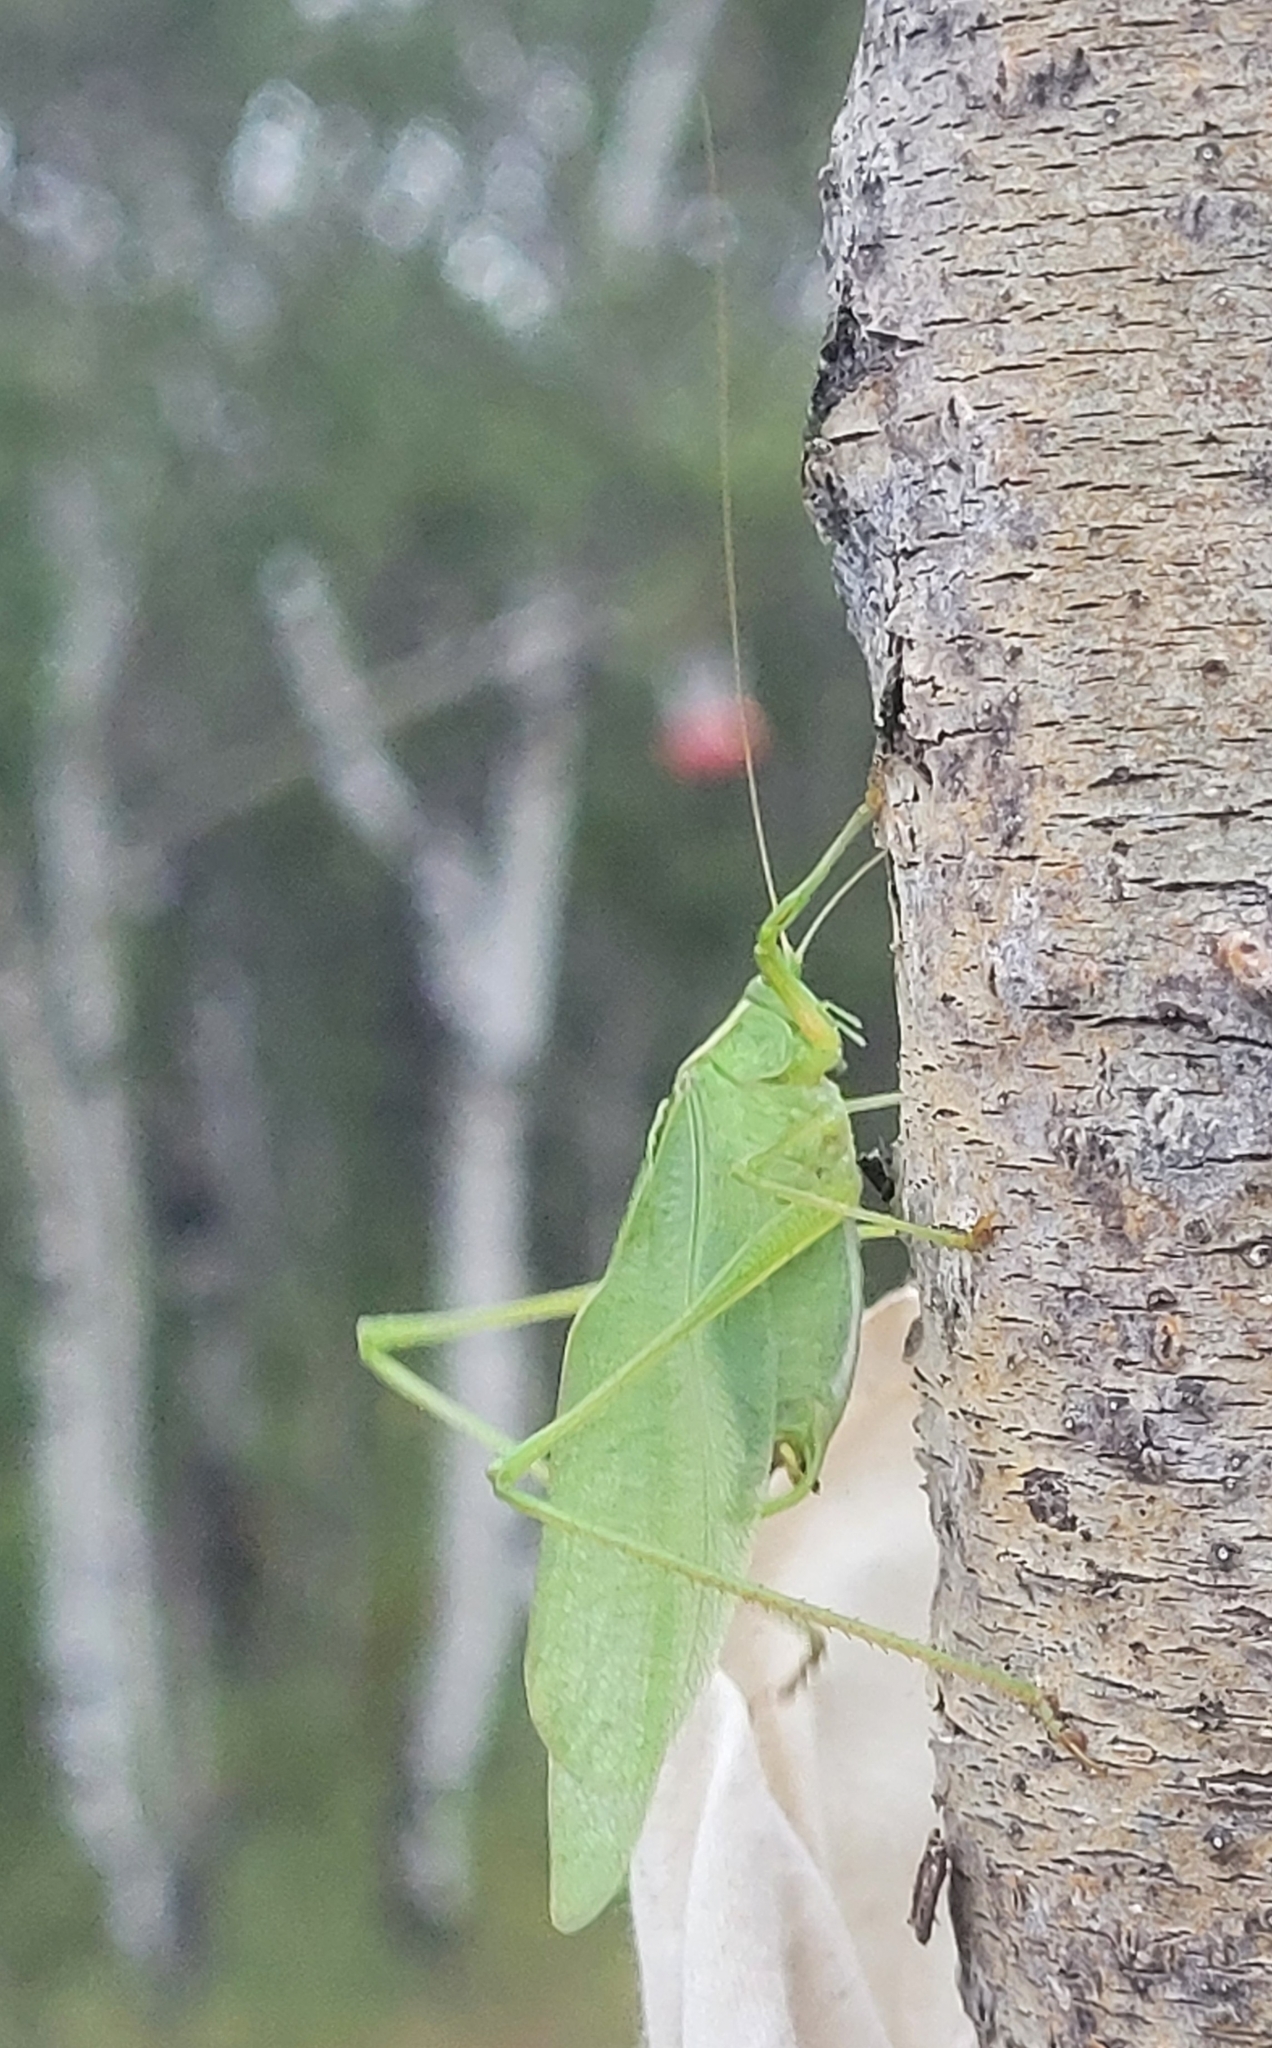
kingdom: Animalia
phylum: Arthropoda
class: Insecta
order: Orthoptera
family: Tettigoniidae
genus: Scudderia
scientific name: Scudderia pistillata
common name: Broad-winged bush-katydid
